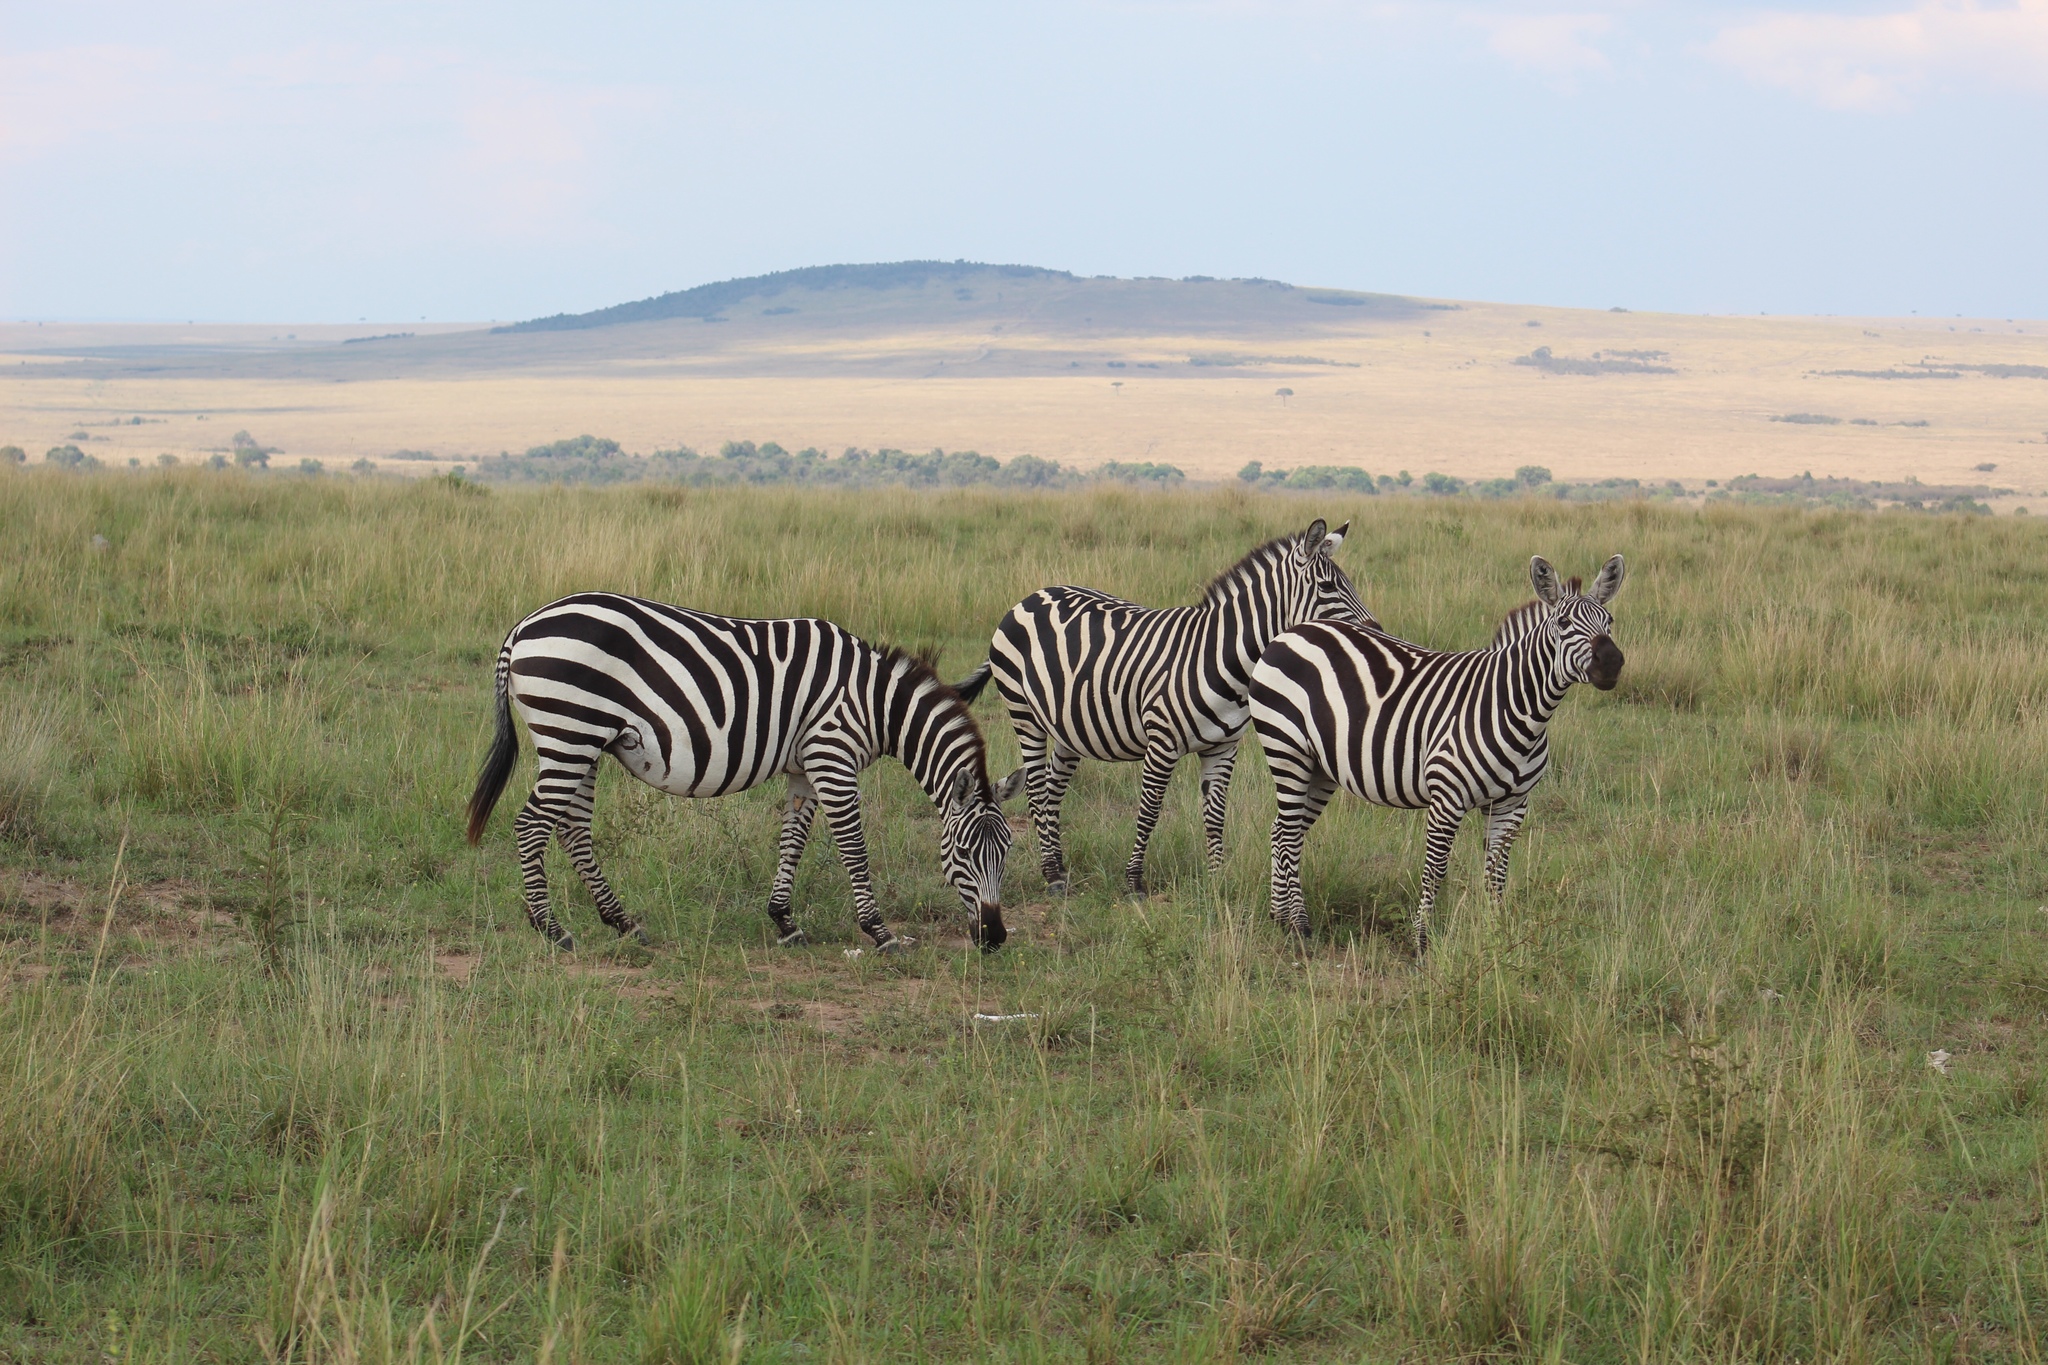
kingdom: Animalia
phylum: Chordata
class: Mammalia
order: Perissodactyla
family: Equidae
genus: Equus
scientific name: Equus quagga
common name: Plains zebra
